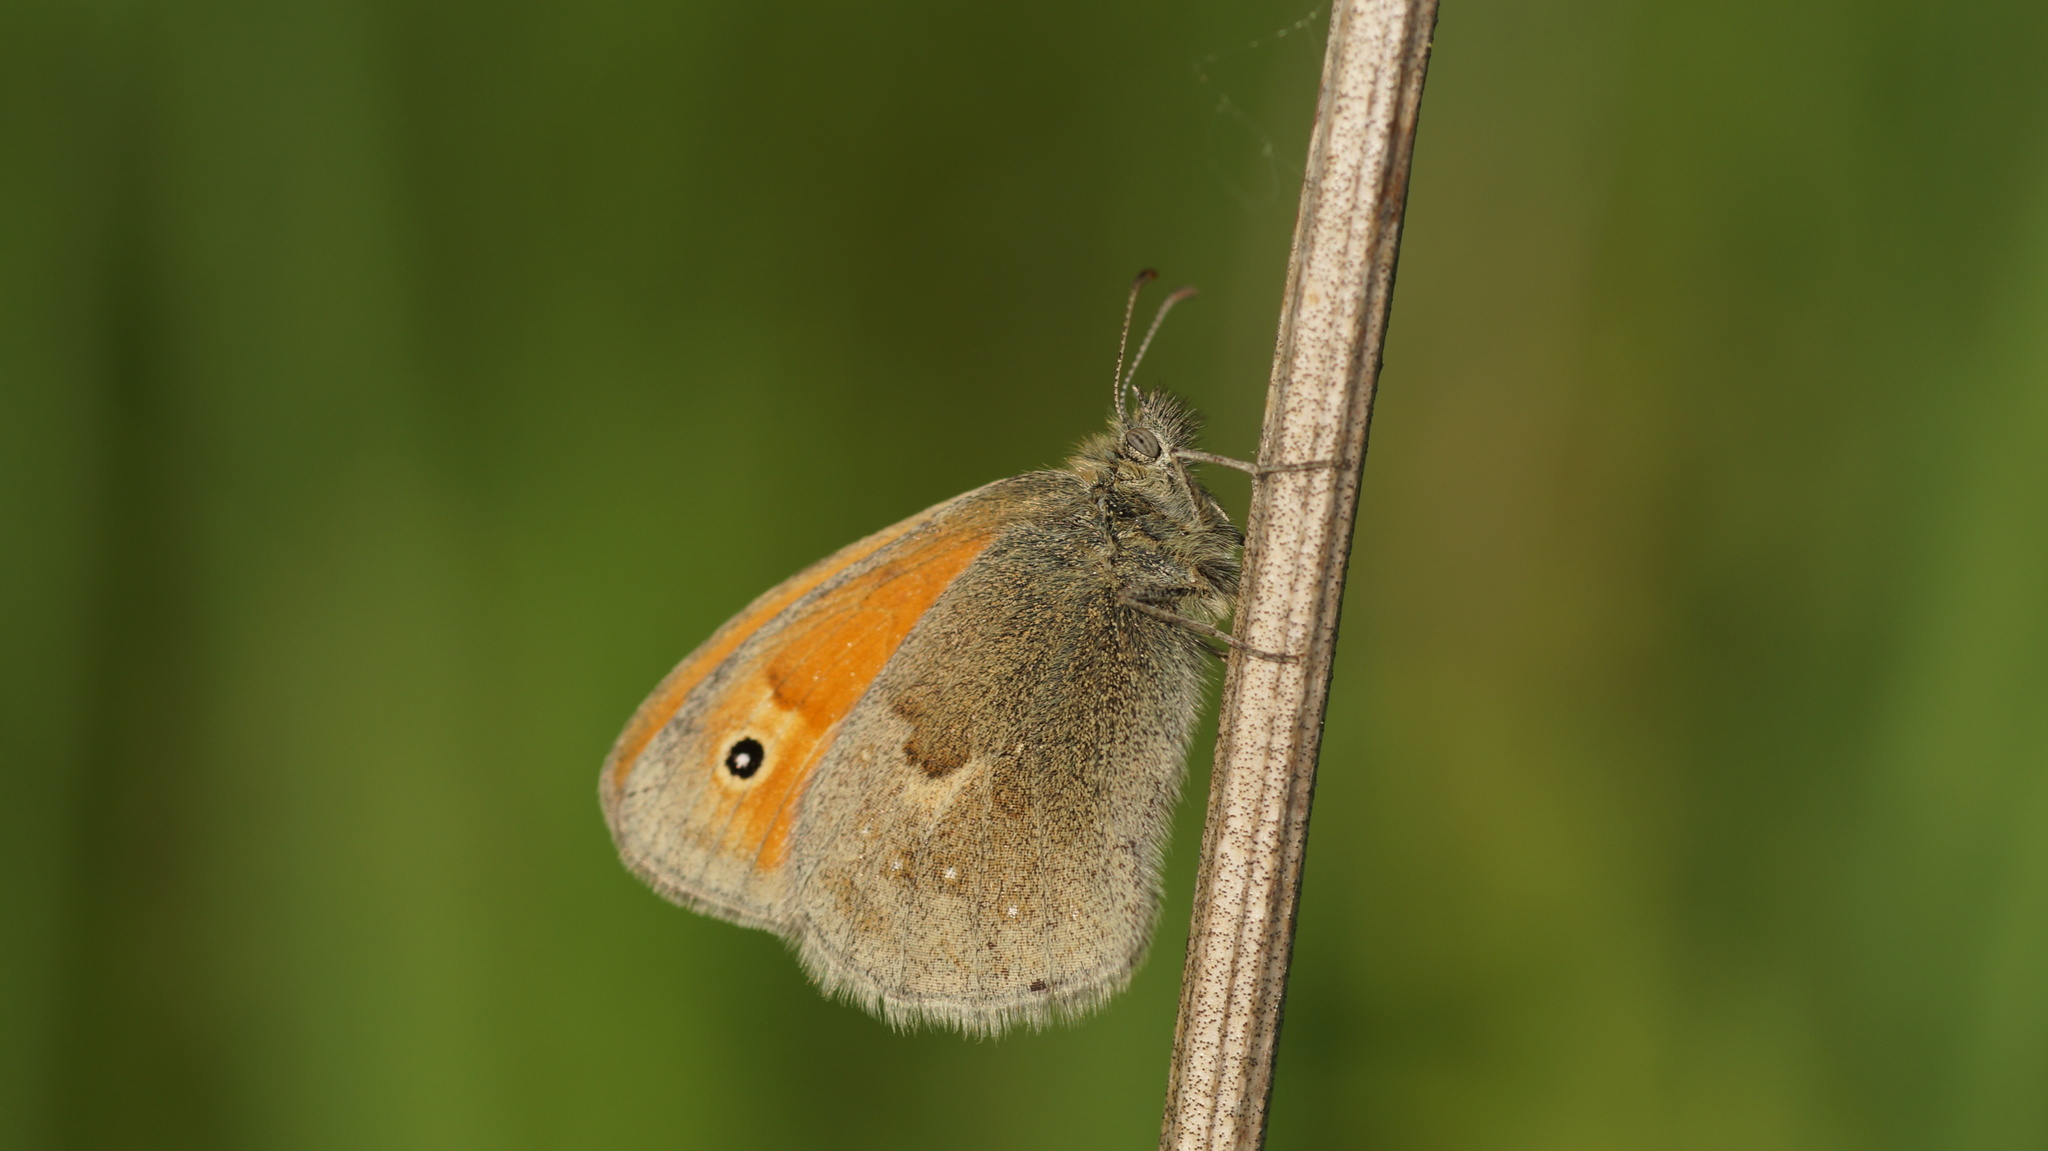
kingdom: Animalia
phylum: Arthropoda
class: Insecta
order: Lepidoptera
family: Nymphalidae
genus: Coenonympha
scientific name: Coenonympha pamphilus
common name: Small heath
